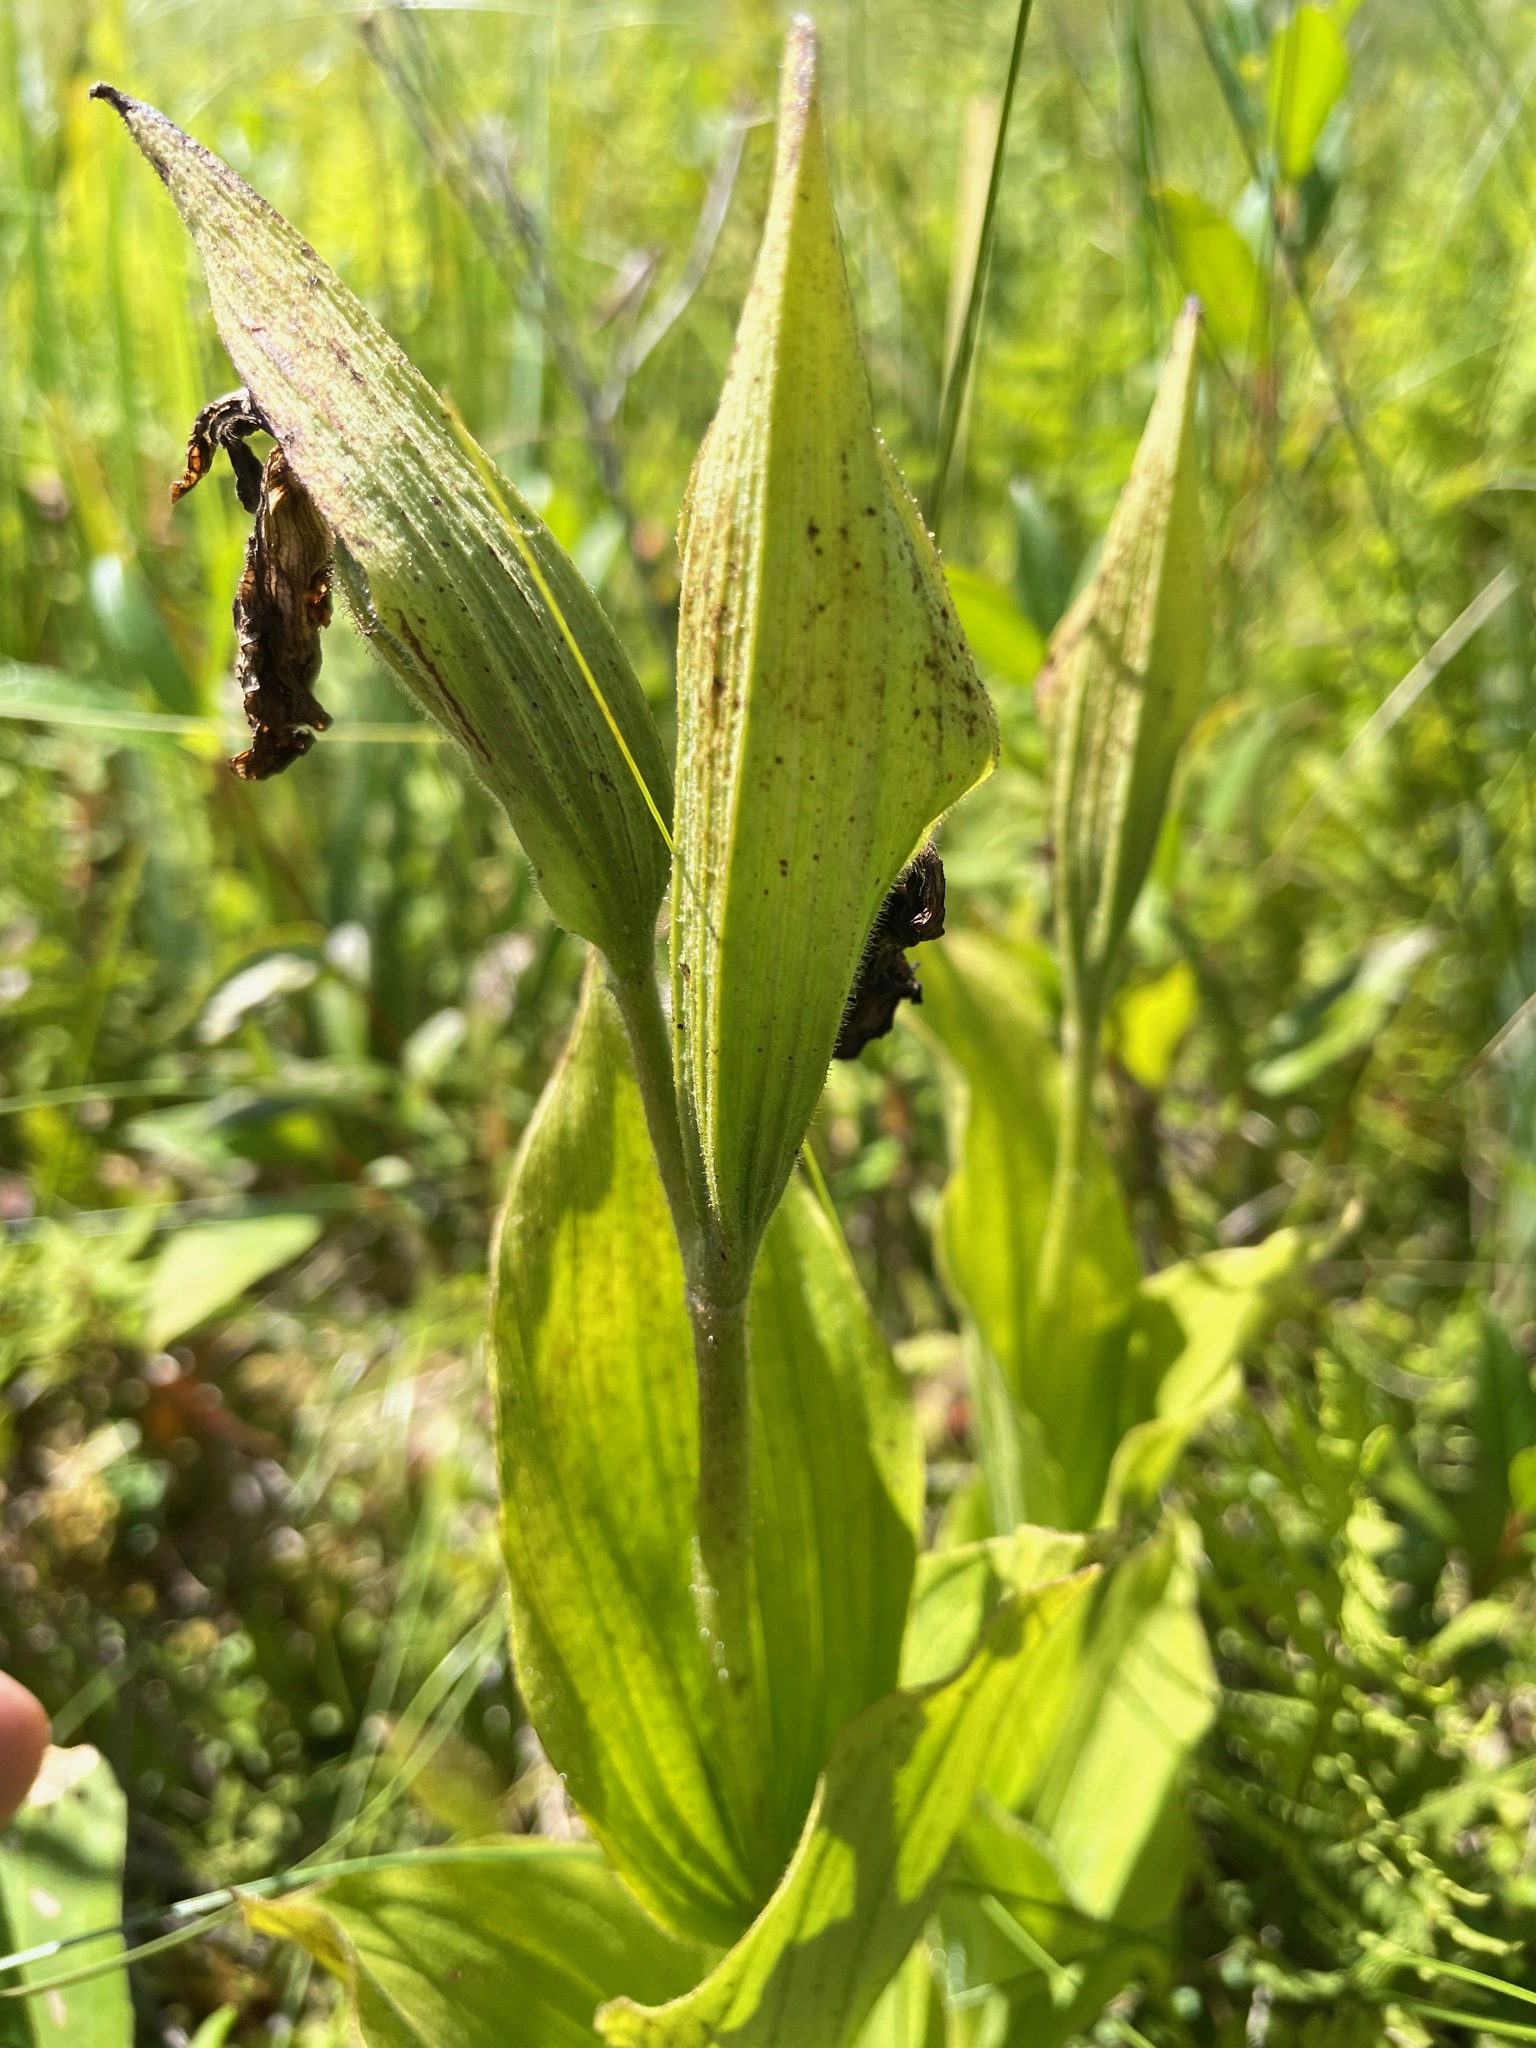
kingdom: Plantae
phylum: Tracheophyta
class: Liliopsida
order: Asparagales
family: Orchidaceae
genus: Cypripedium
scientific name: Cypripedium reginae
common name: Queen lady's-slipper
